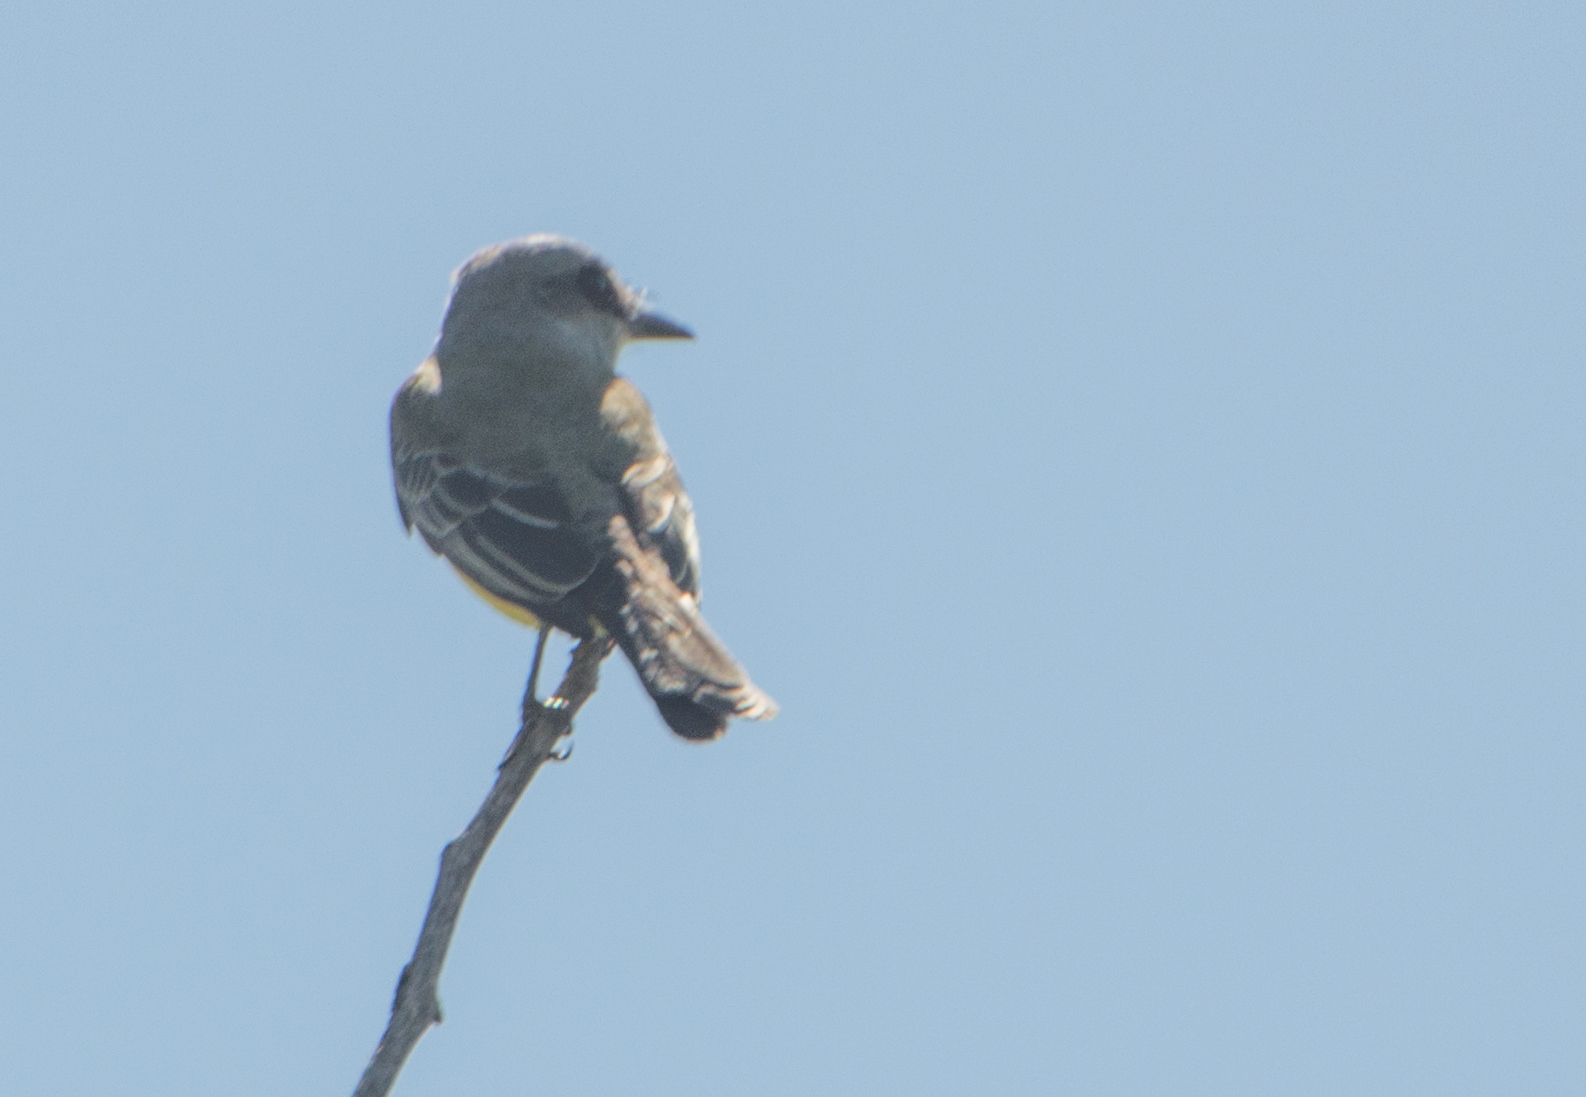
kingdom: Animalia
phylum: Chordata
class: Aves
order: Passeriformes
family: Tyrannidae
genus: Tyrannus
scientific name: Tyrannus melancholicus
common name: Tropical kingbird
